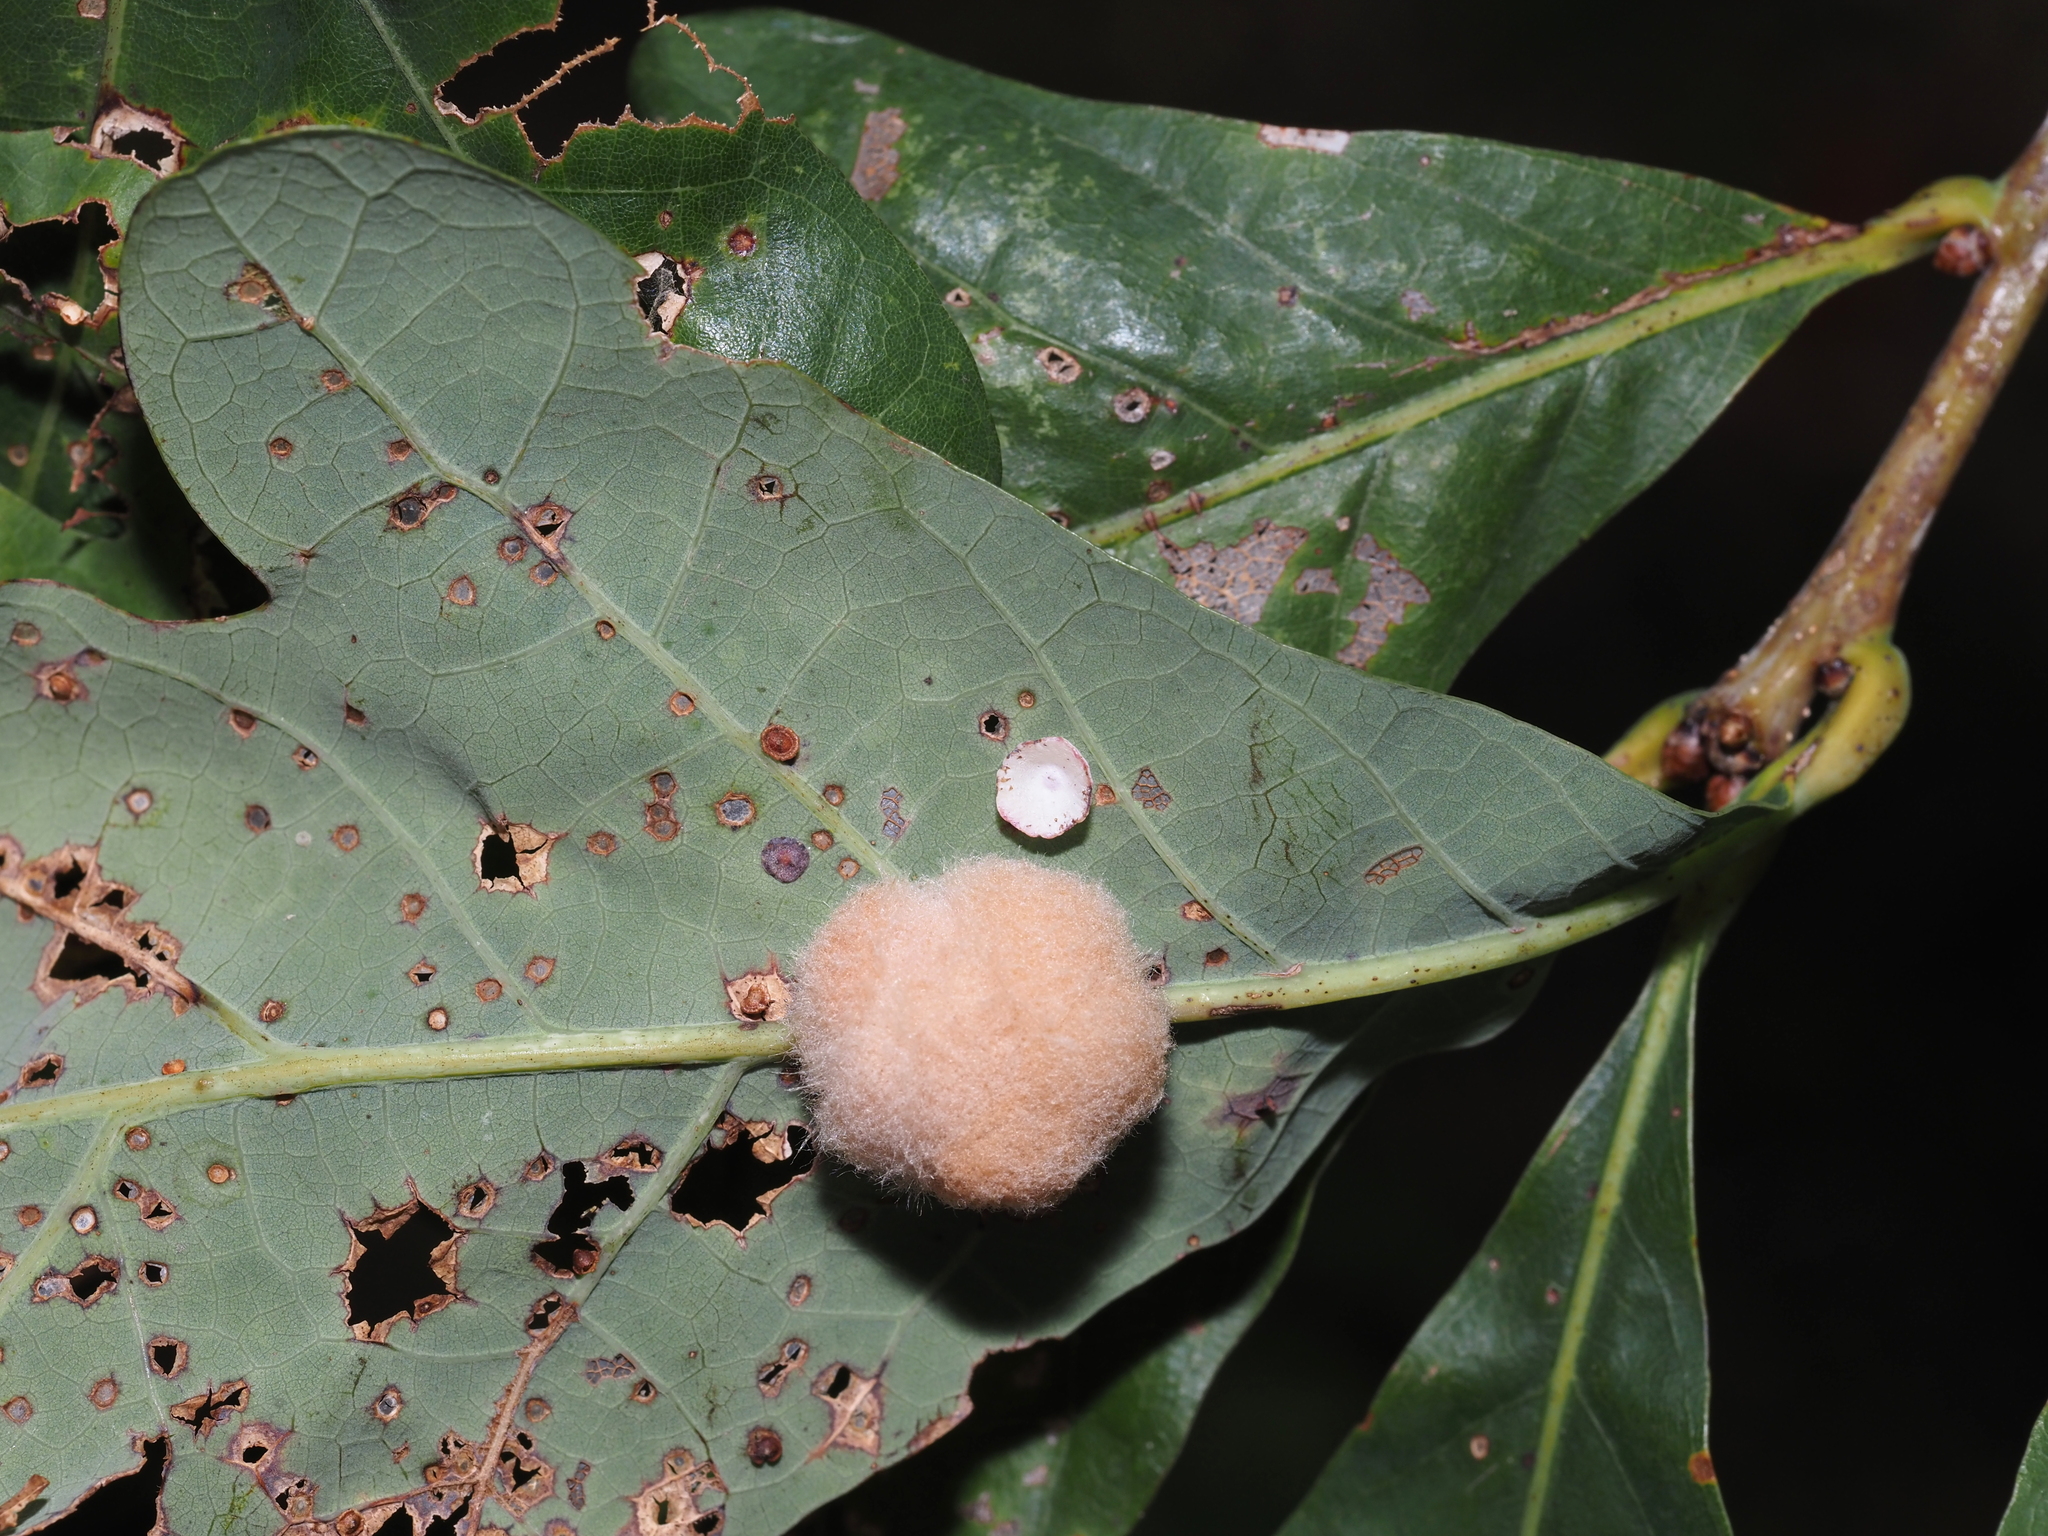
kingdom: Animalia
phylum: Arthropoda
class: Insecta
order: Hymenoptera
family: Cynipidae
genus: Phylloteras
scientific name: Phylloteras poculum
